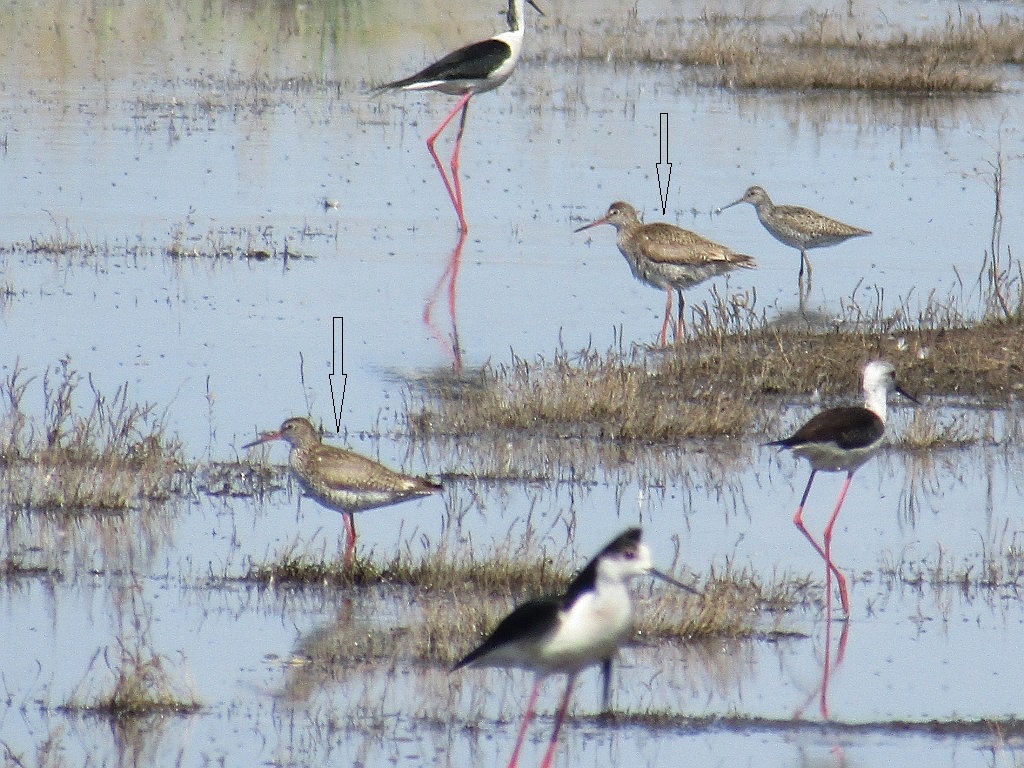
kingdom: Animalia
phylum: Chordata
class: Aves
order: Charadriiformes
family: Scolopacidae
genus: Tringa
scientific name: Tringa totanus
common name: Common redshank
